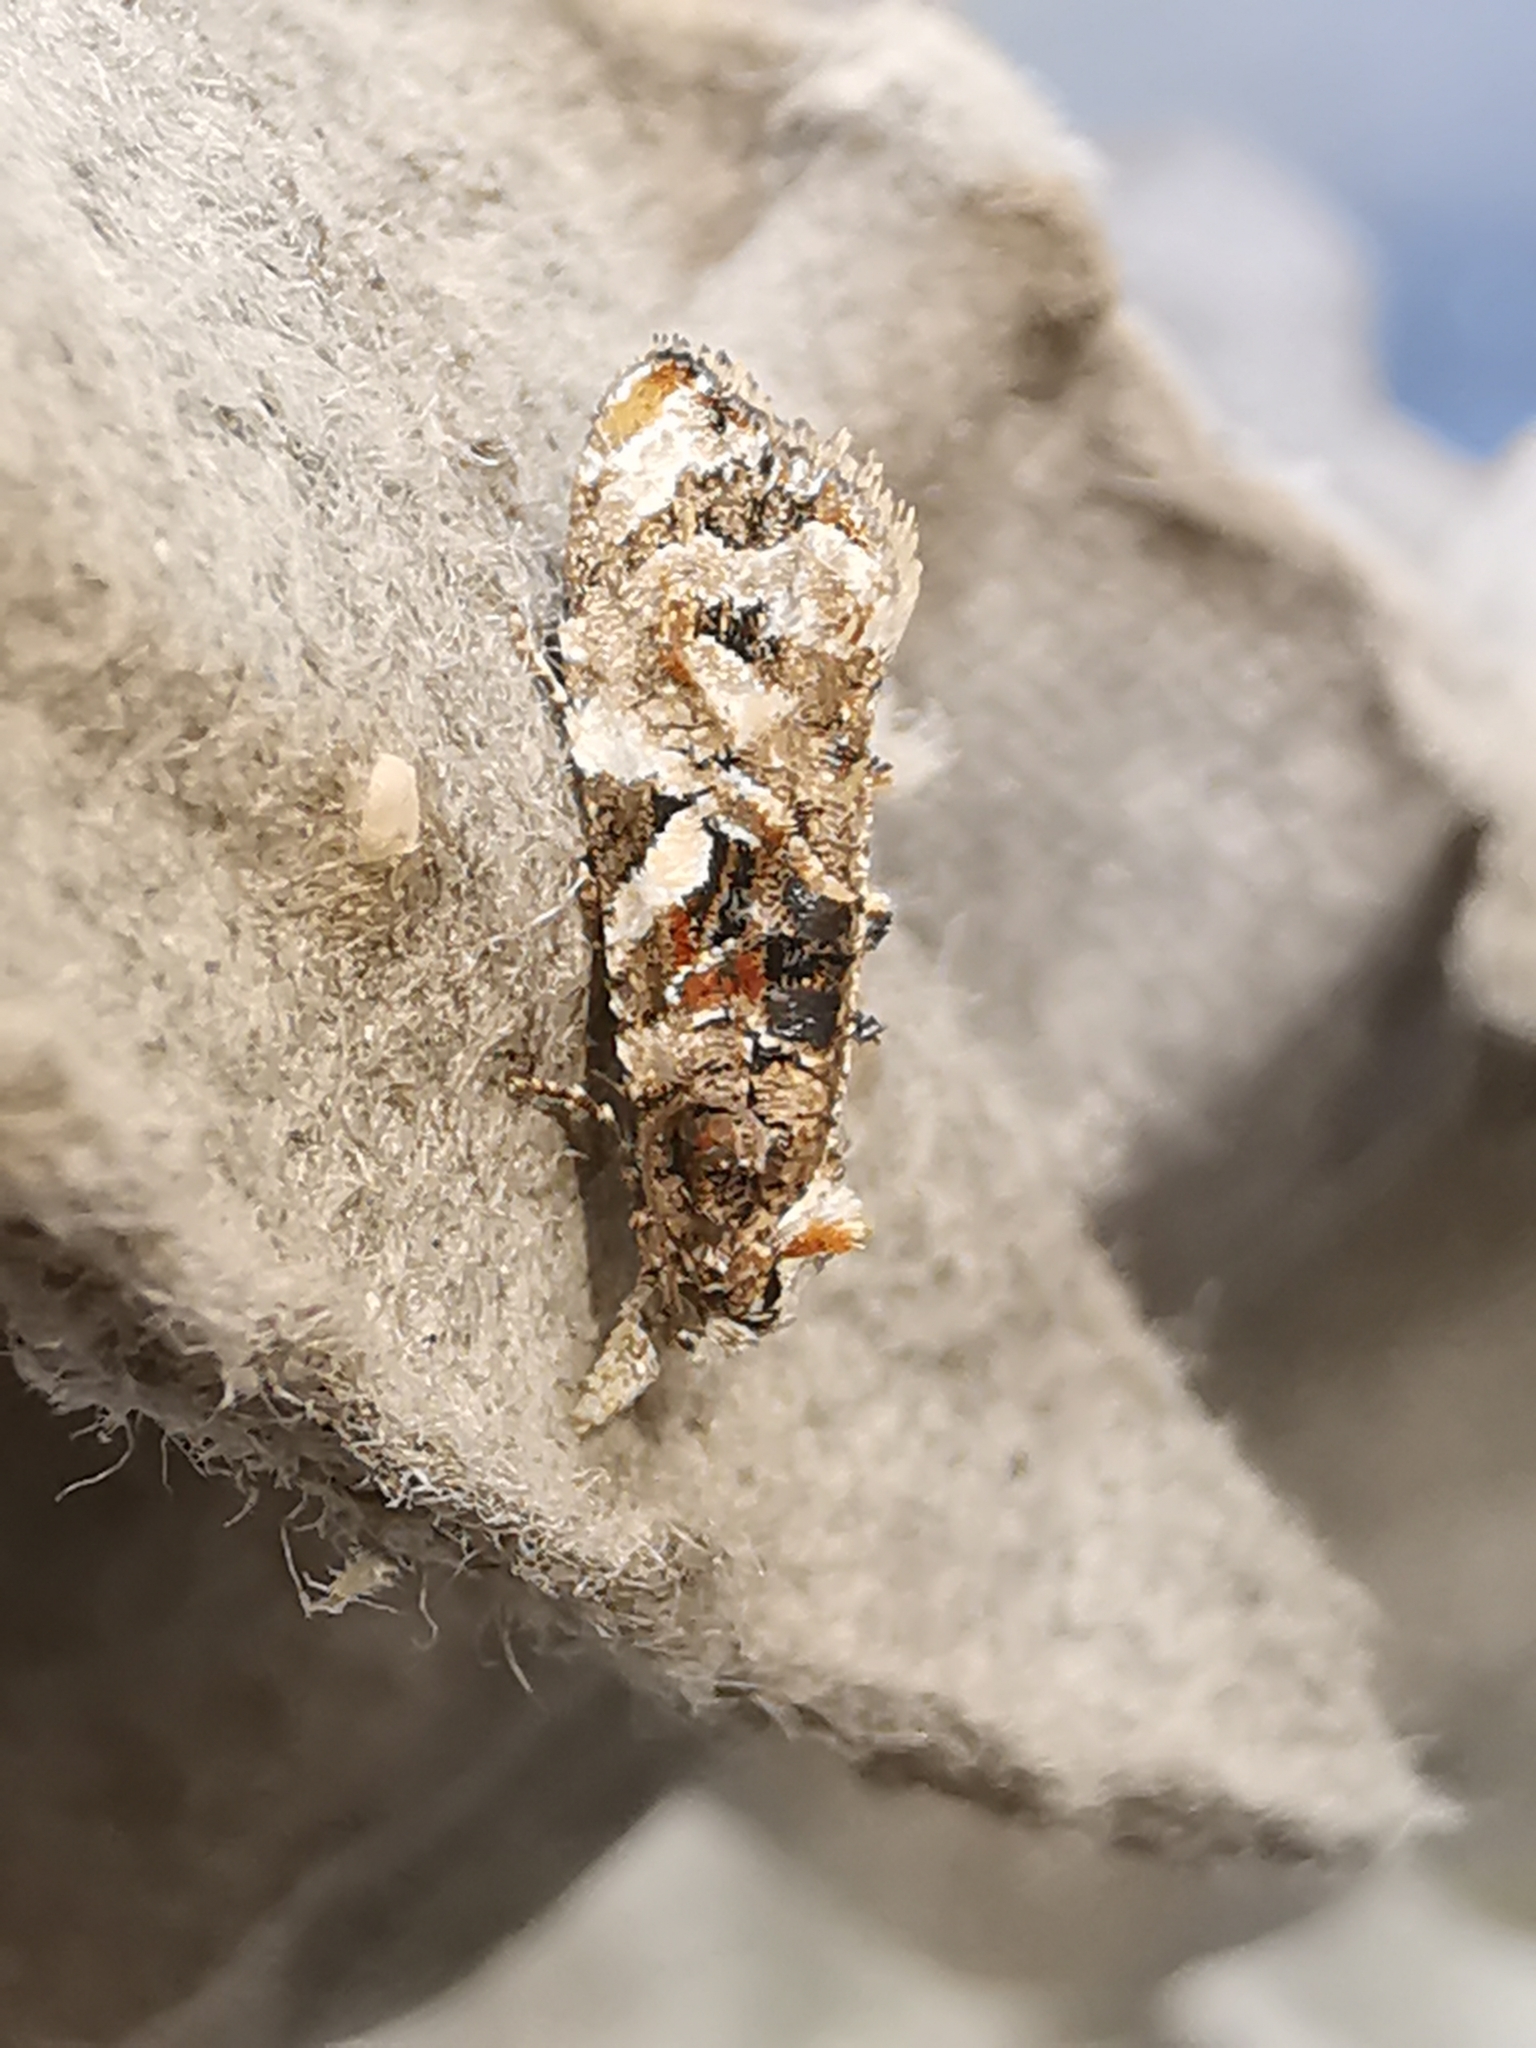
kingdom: Animalia
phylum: Arthropoda
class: Insecta
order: Lepidoptera
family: Tortricidae
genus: Phtheochroa
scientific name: Phtheochroa rugosana
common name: Rough-winged conch
